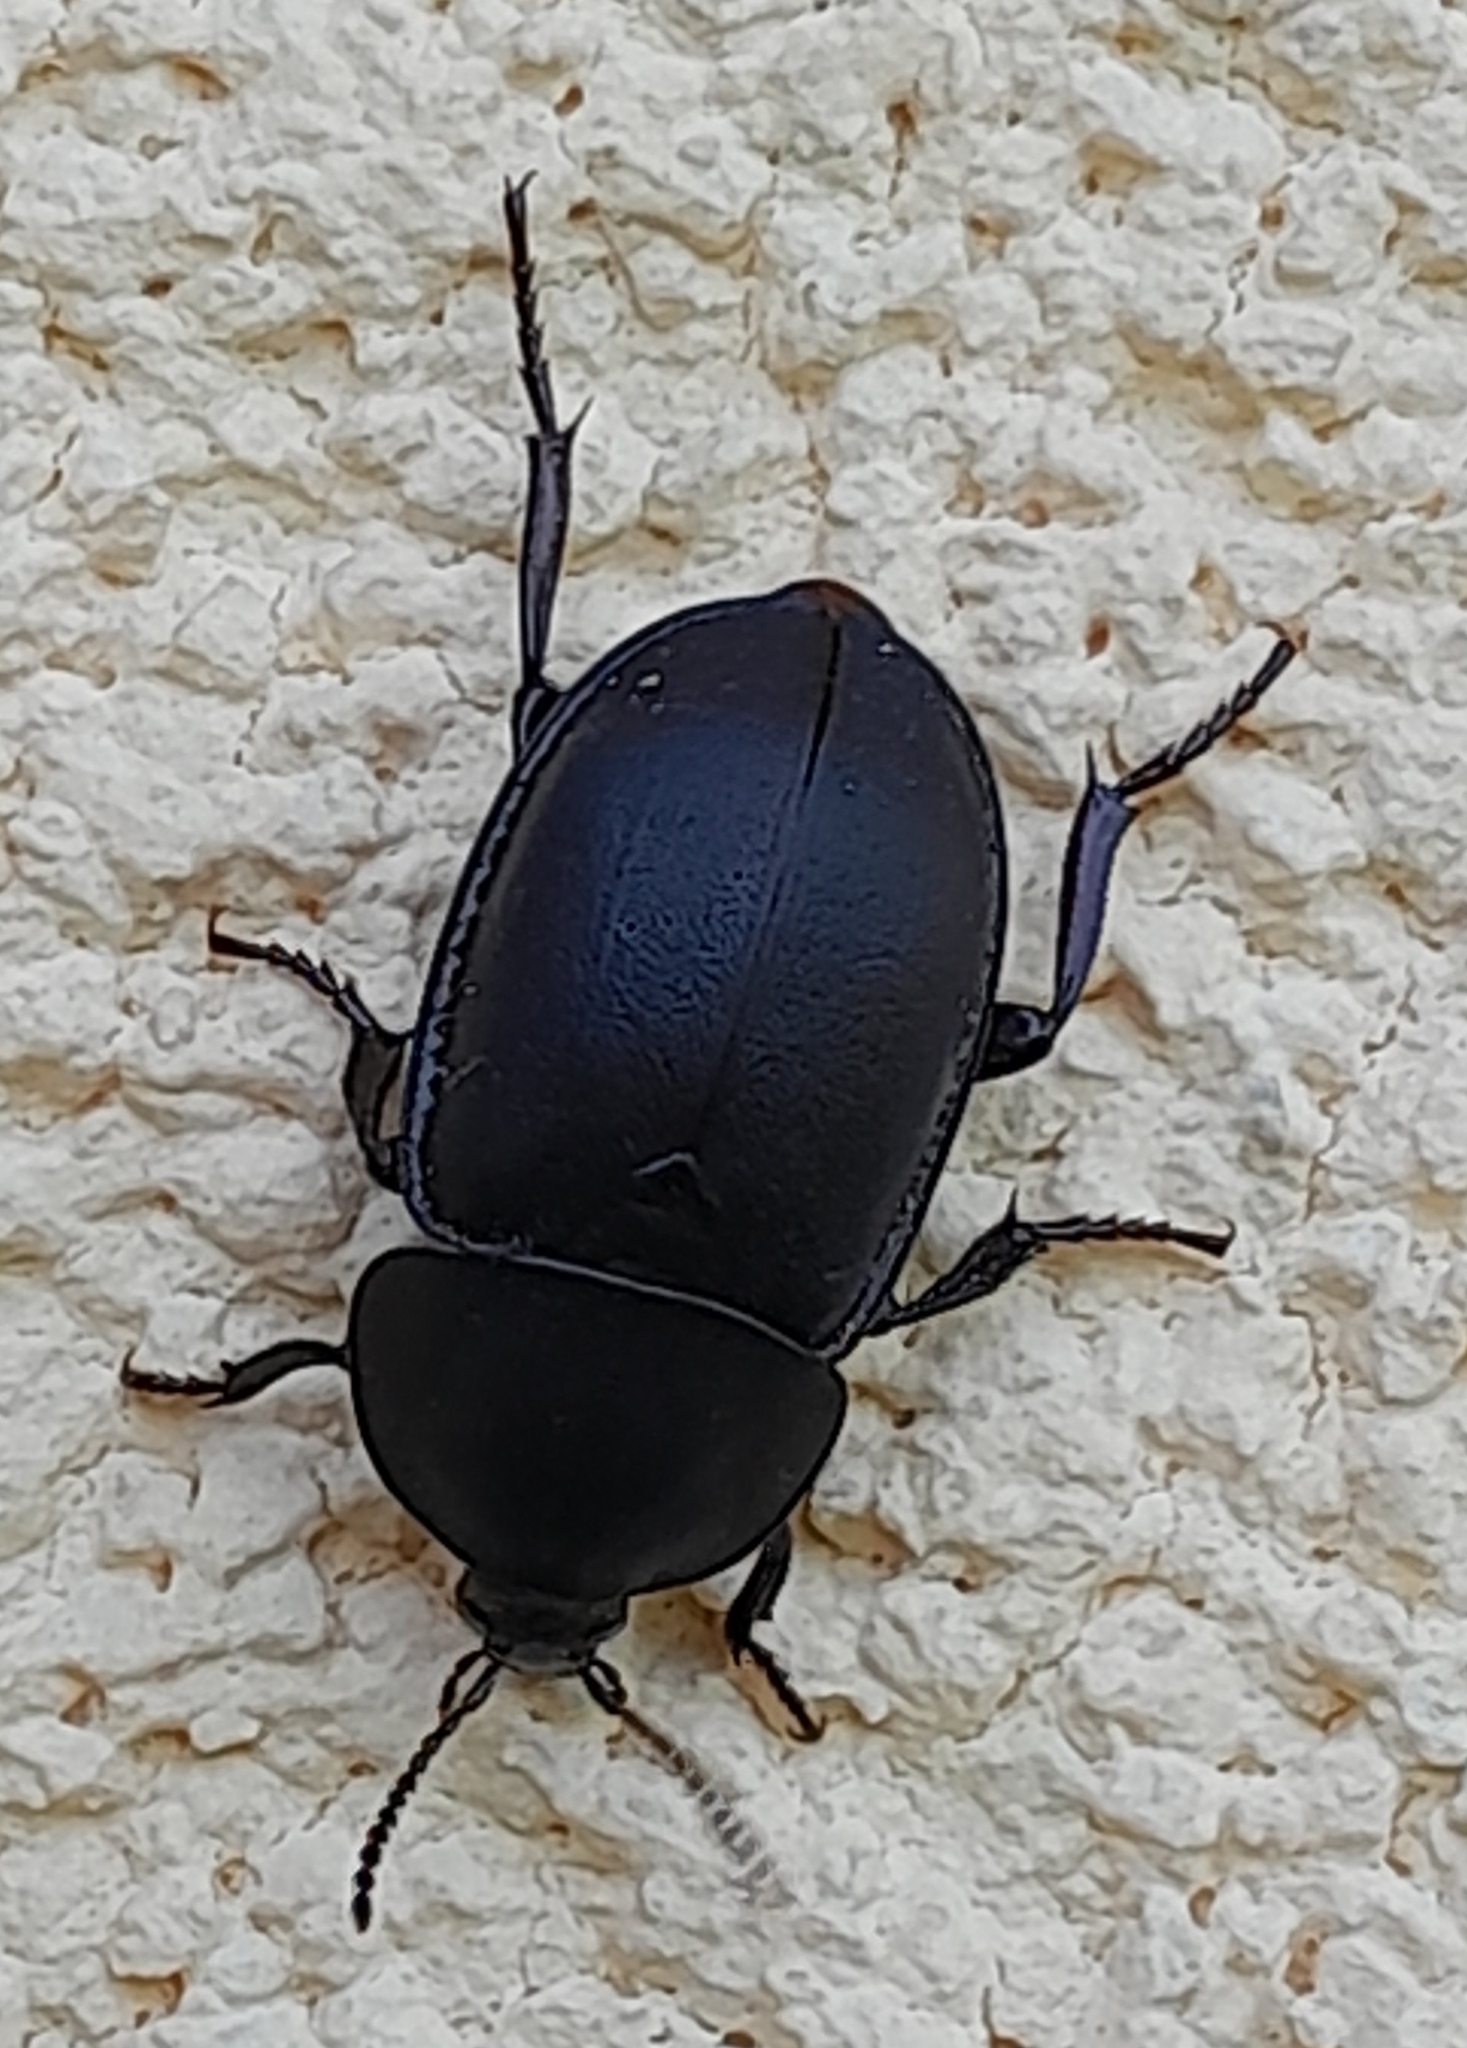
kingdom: Animalia
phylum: Arthropoda
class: Insecta
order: Coleoptera
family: Staphylinidae
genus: Silpha
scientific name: Silpha laevigata
